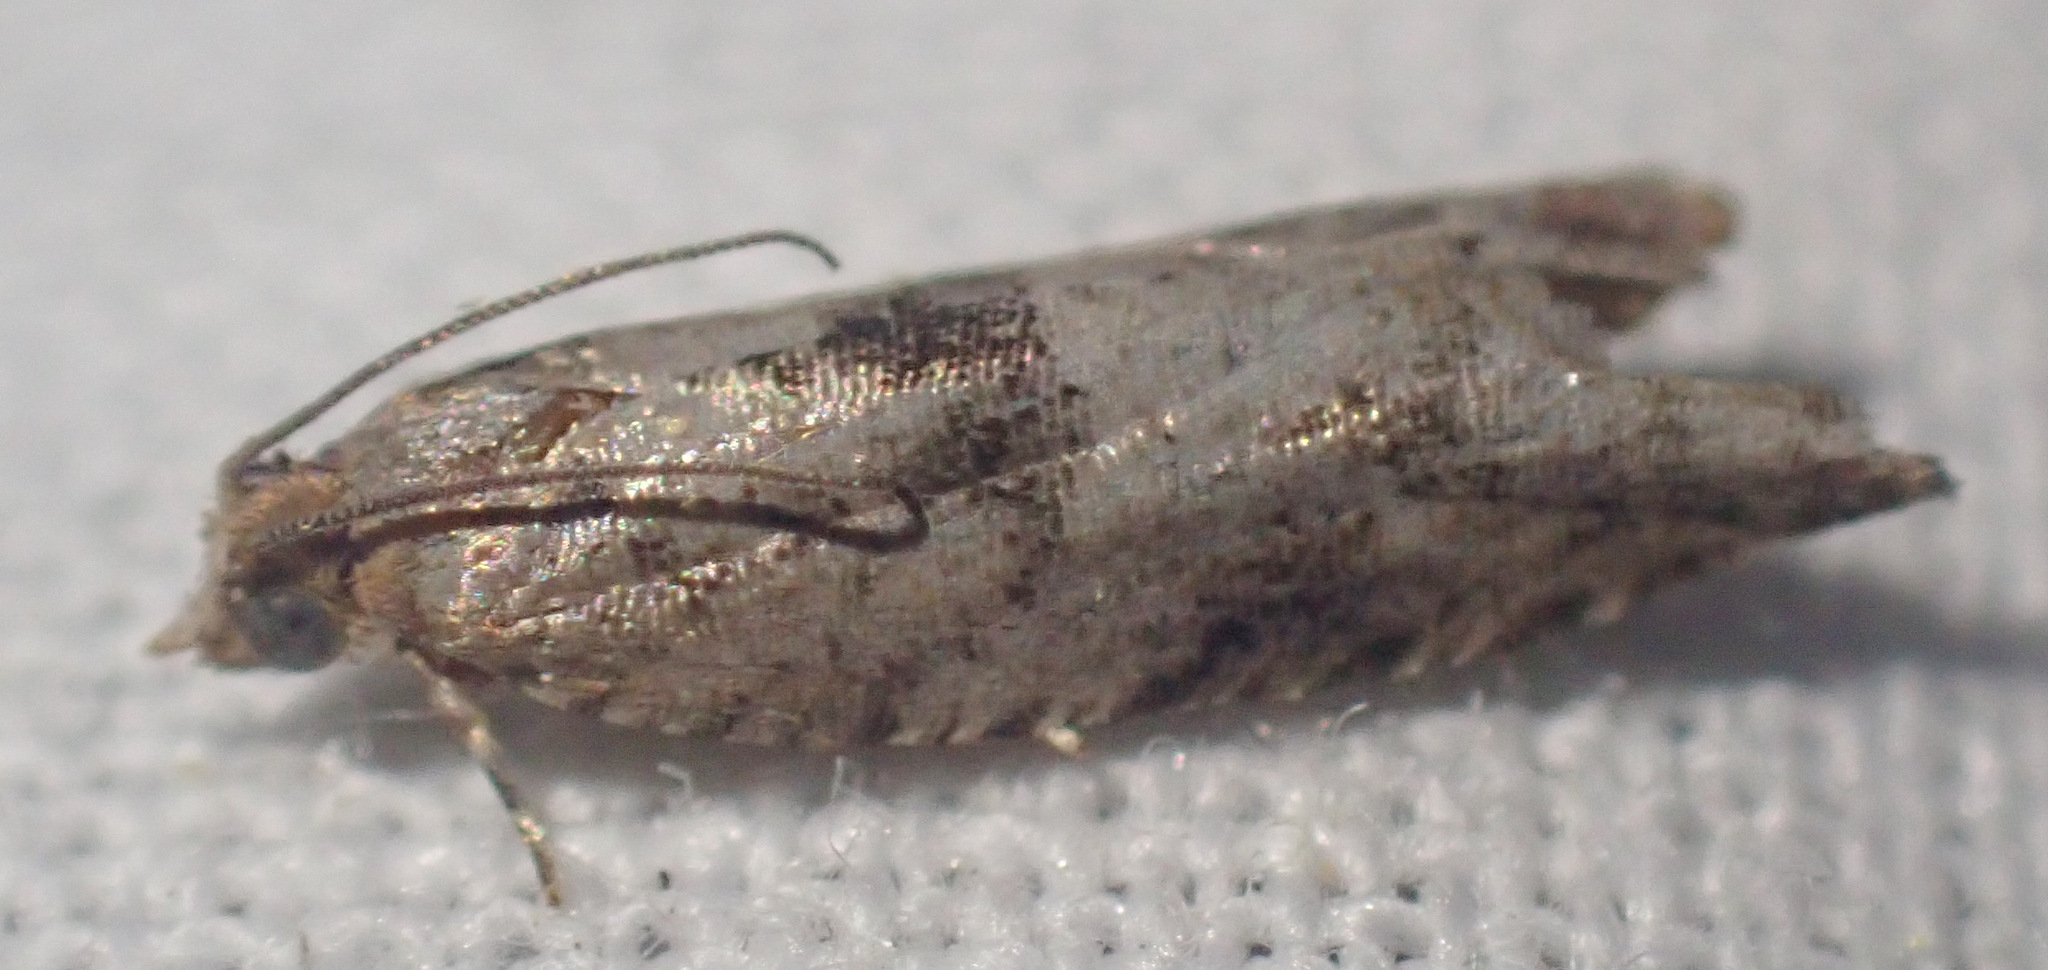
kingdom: Animalia
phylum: Arthropoda
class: Insecta
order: Lepidoptera
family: Tortricidae
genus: Epinotia
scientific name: Epinotia ramella
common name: Small birch bell
